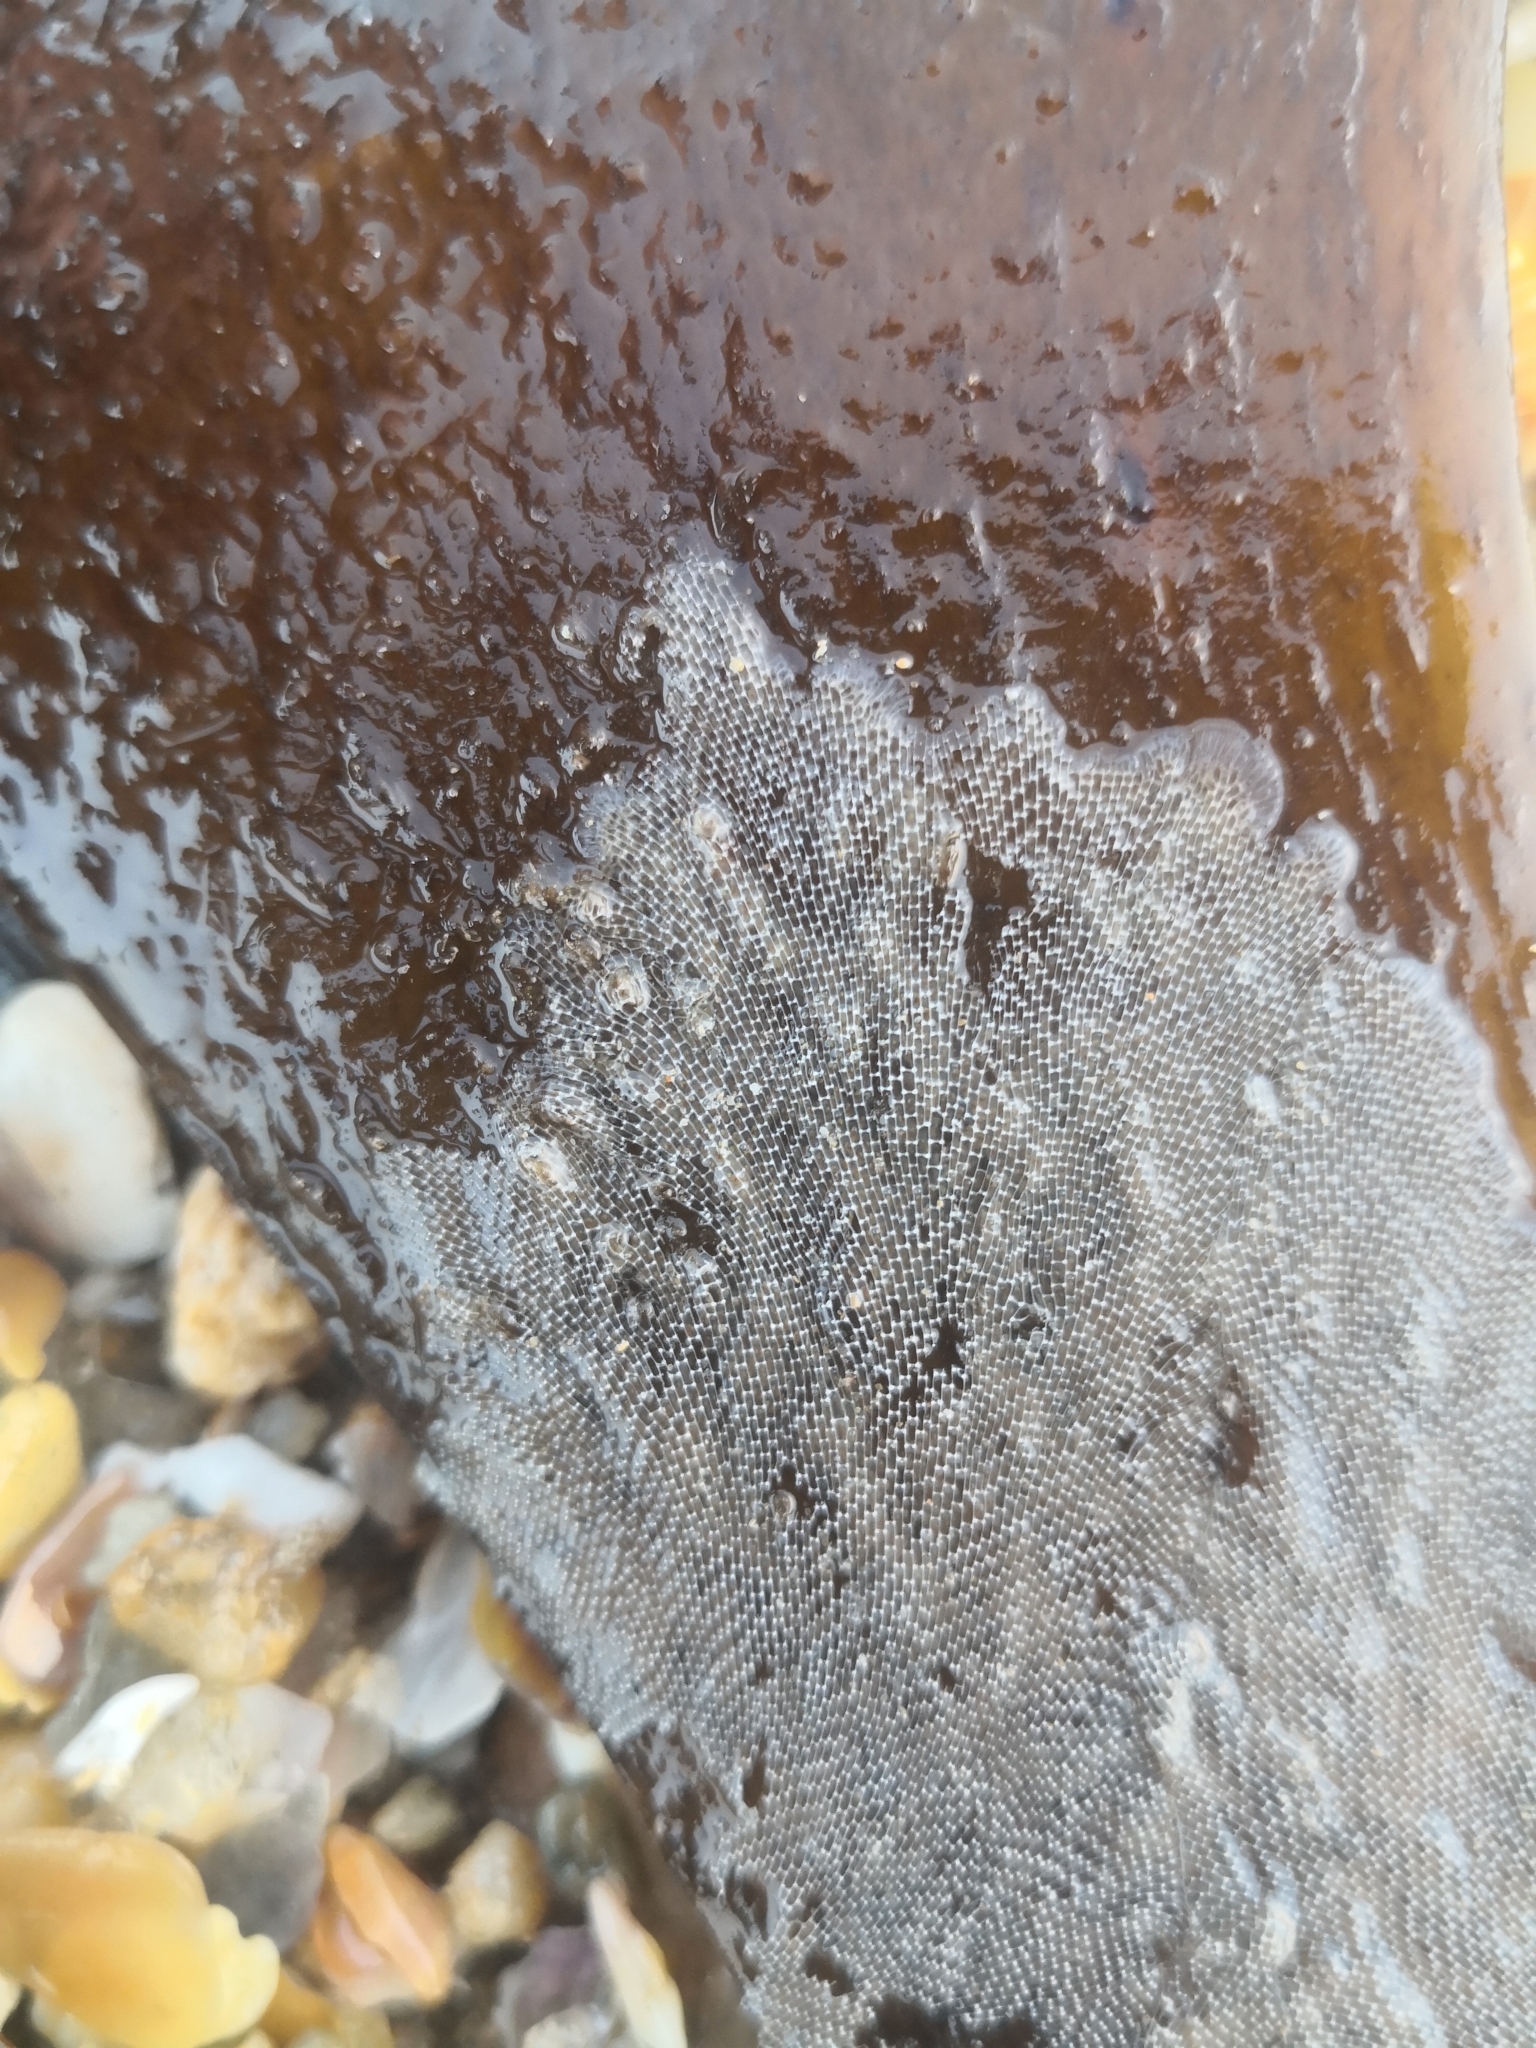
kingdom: Animalia
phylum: Bryozoa
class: Gymnolaemata
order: Cheilostomatida
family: Membraniporidae
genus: Membranipora
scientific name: Membranipora membranacea
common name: Sea mat
